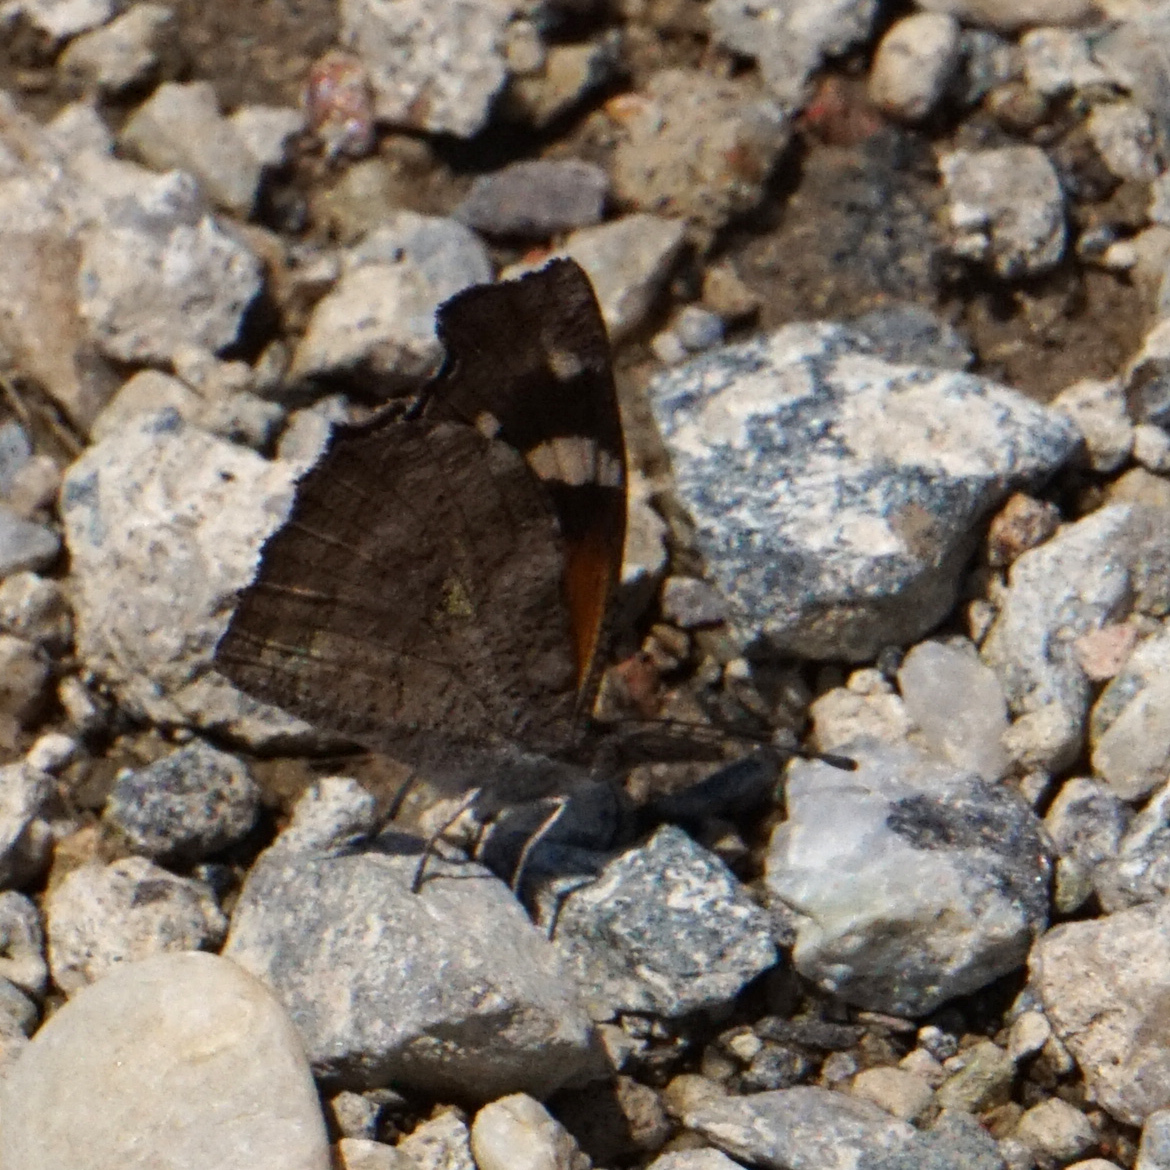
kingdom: Animalia
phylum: Arthropoda
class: Insecta
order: Lepidoptera
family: Nymphalidae
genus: Libytheana
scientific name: Libytheana carinenta
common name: American snout
